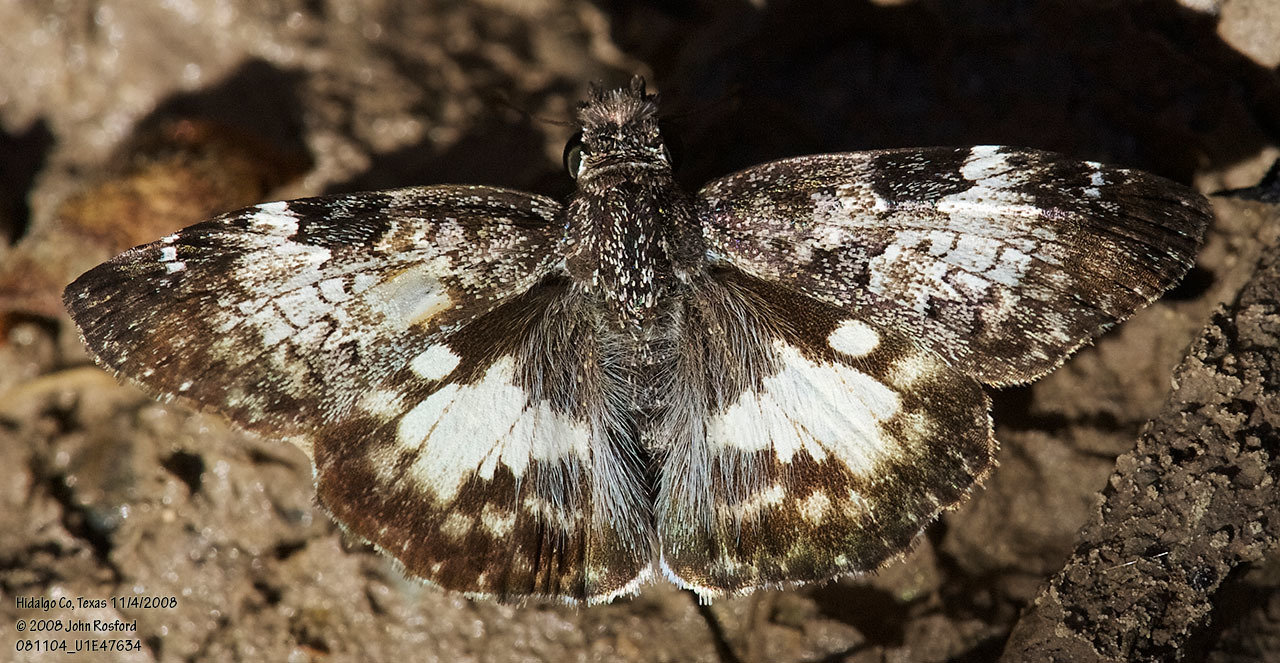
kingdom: Animalia
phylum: Arthropoda
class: Insecta
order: Lepidoptera
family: Hesperiidae
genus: Chiothion
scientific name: Chiothion georgina
